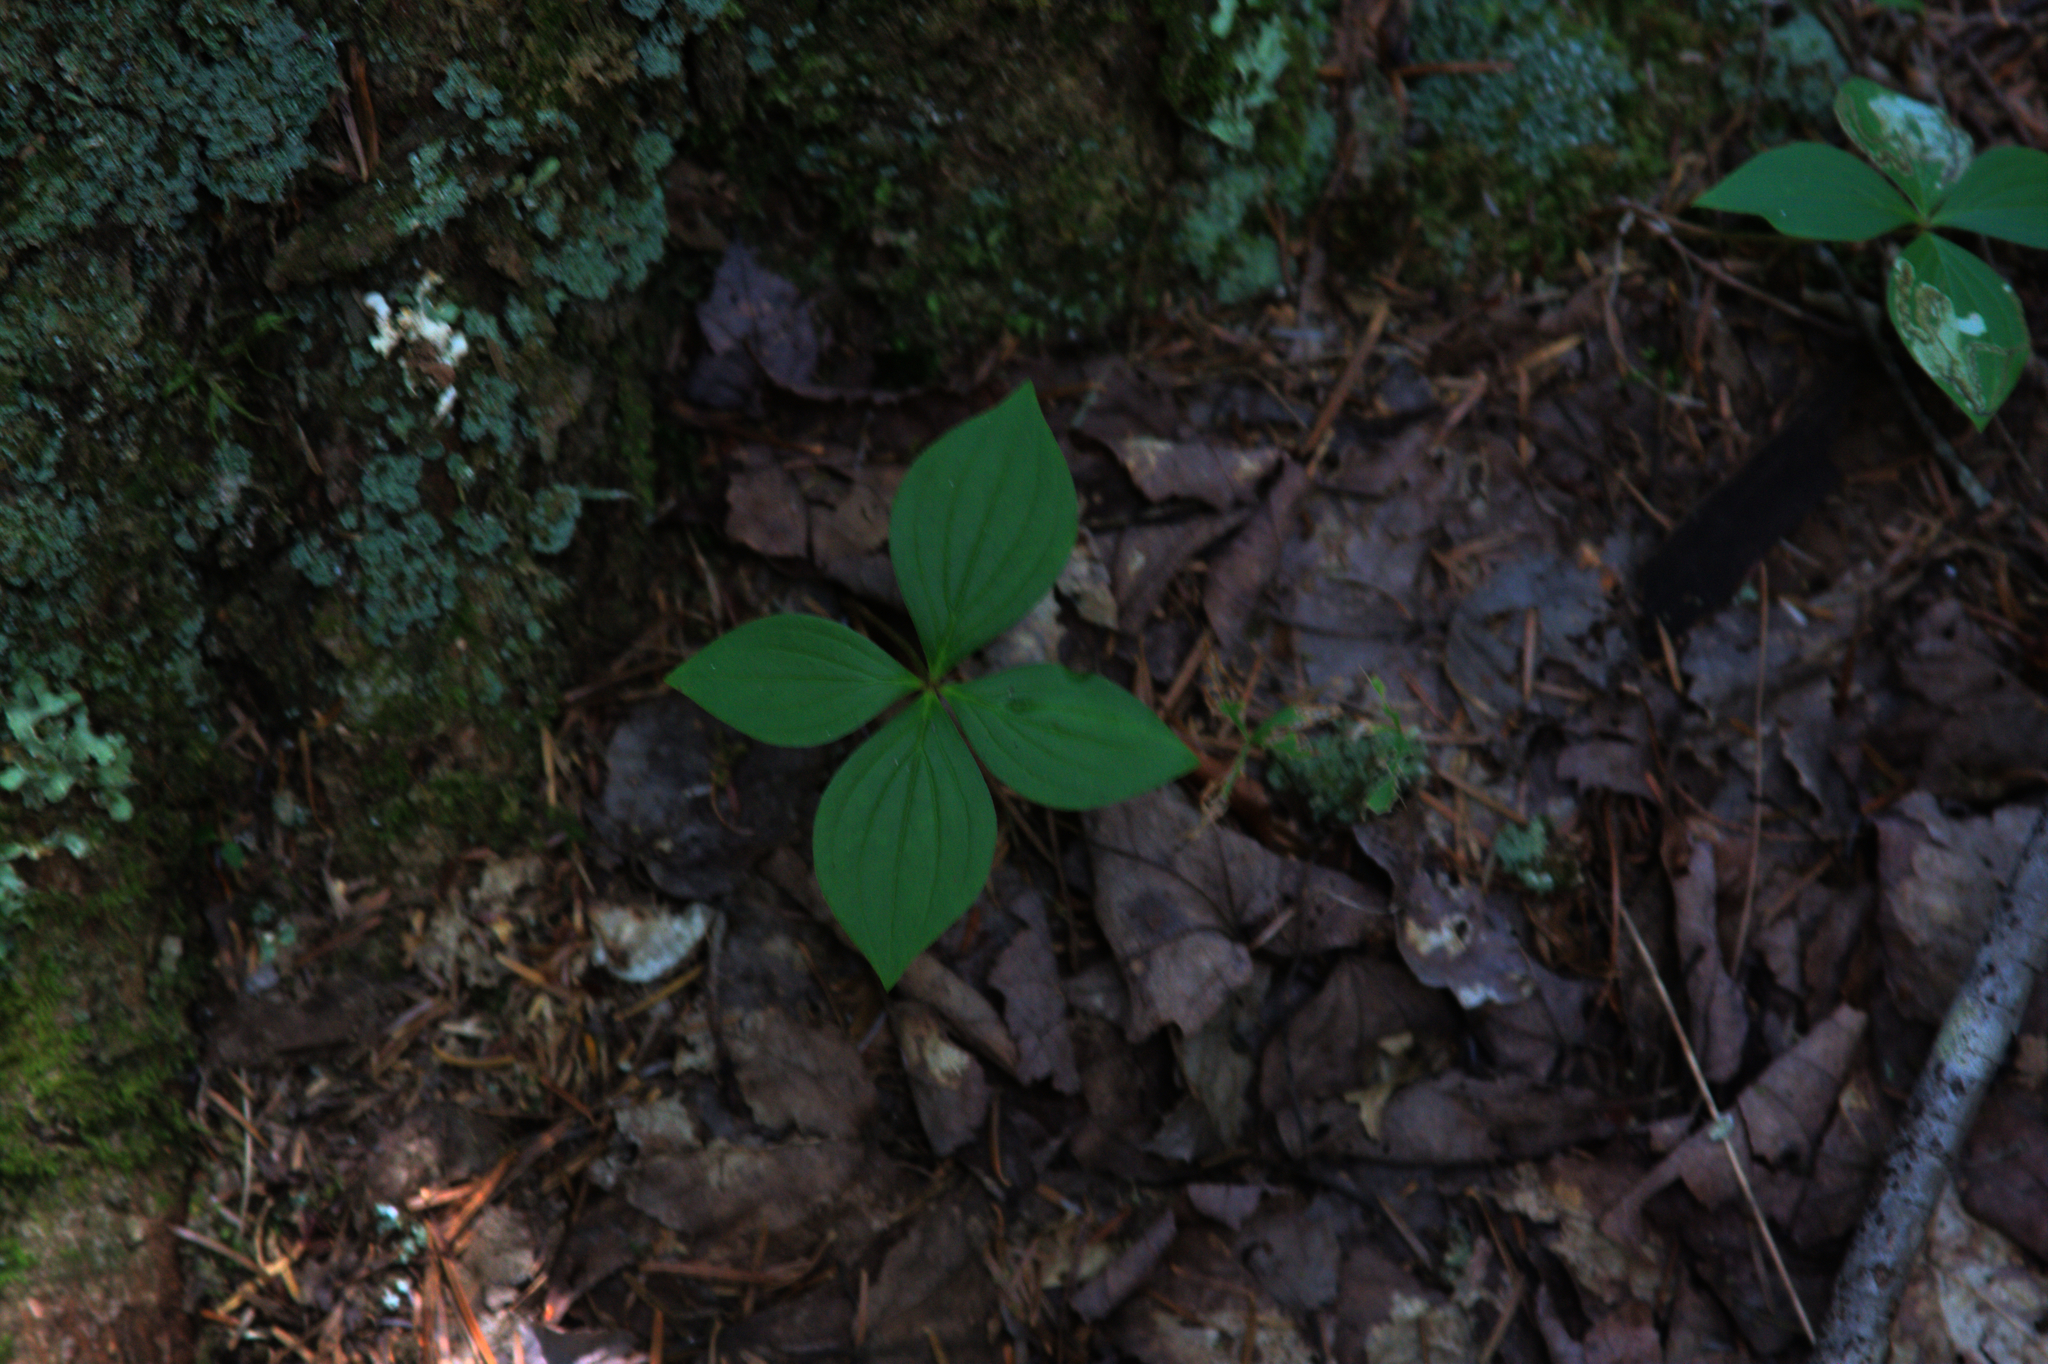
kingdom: Plantae
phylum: Tracheophyta
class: Magnoliopsida
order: Cornales
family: Cornaceae
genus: Cornus
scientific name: Cornus canadensis
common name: Creeping dogwood
